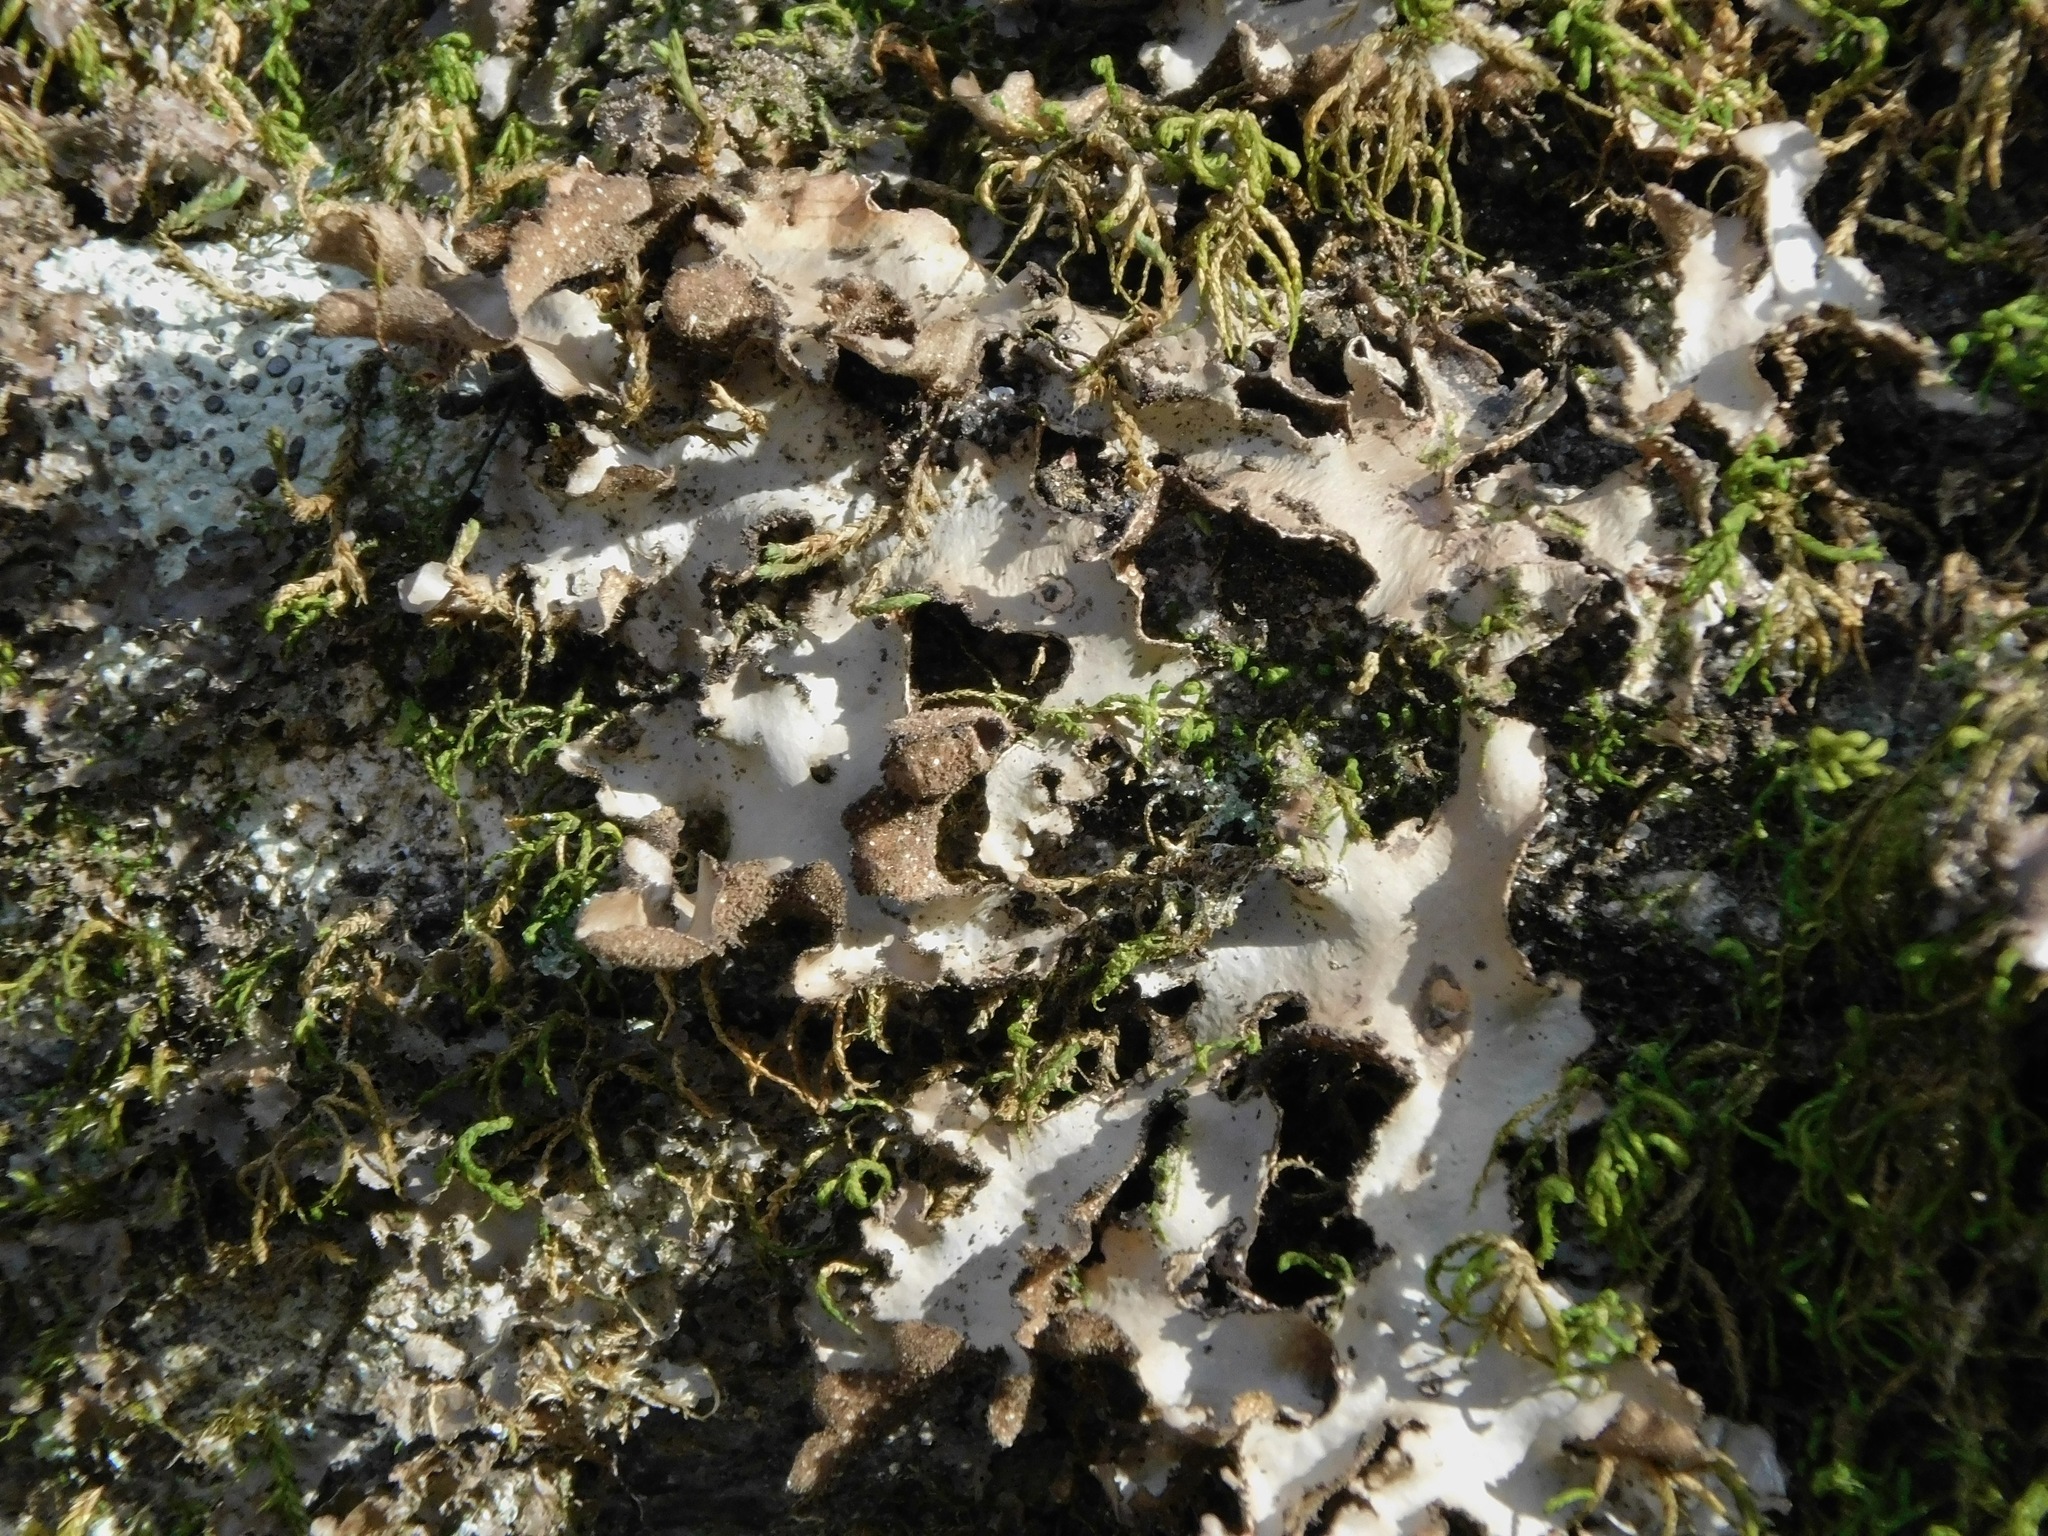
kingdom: Fungi
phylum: Ascomycota
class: Lecanoromycetes
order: Peltigerales
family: Lobariaceae
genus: Sticta
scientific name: Sticta beauvoisii
